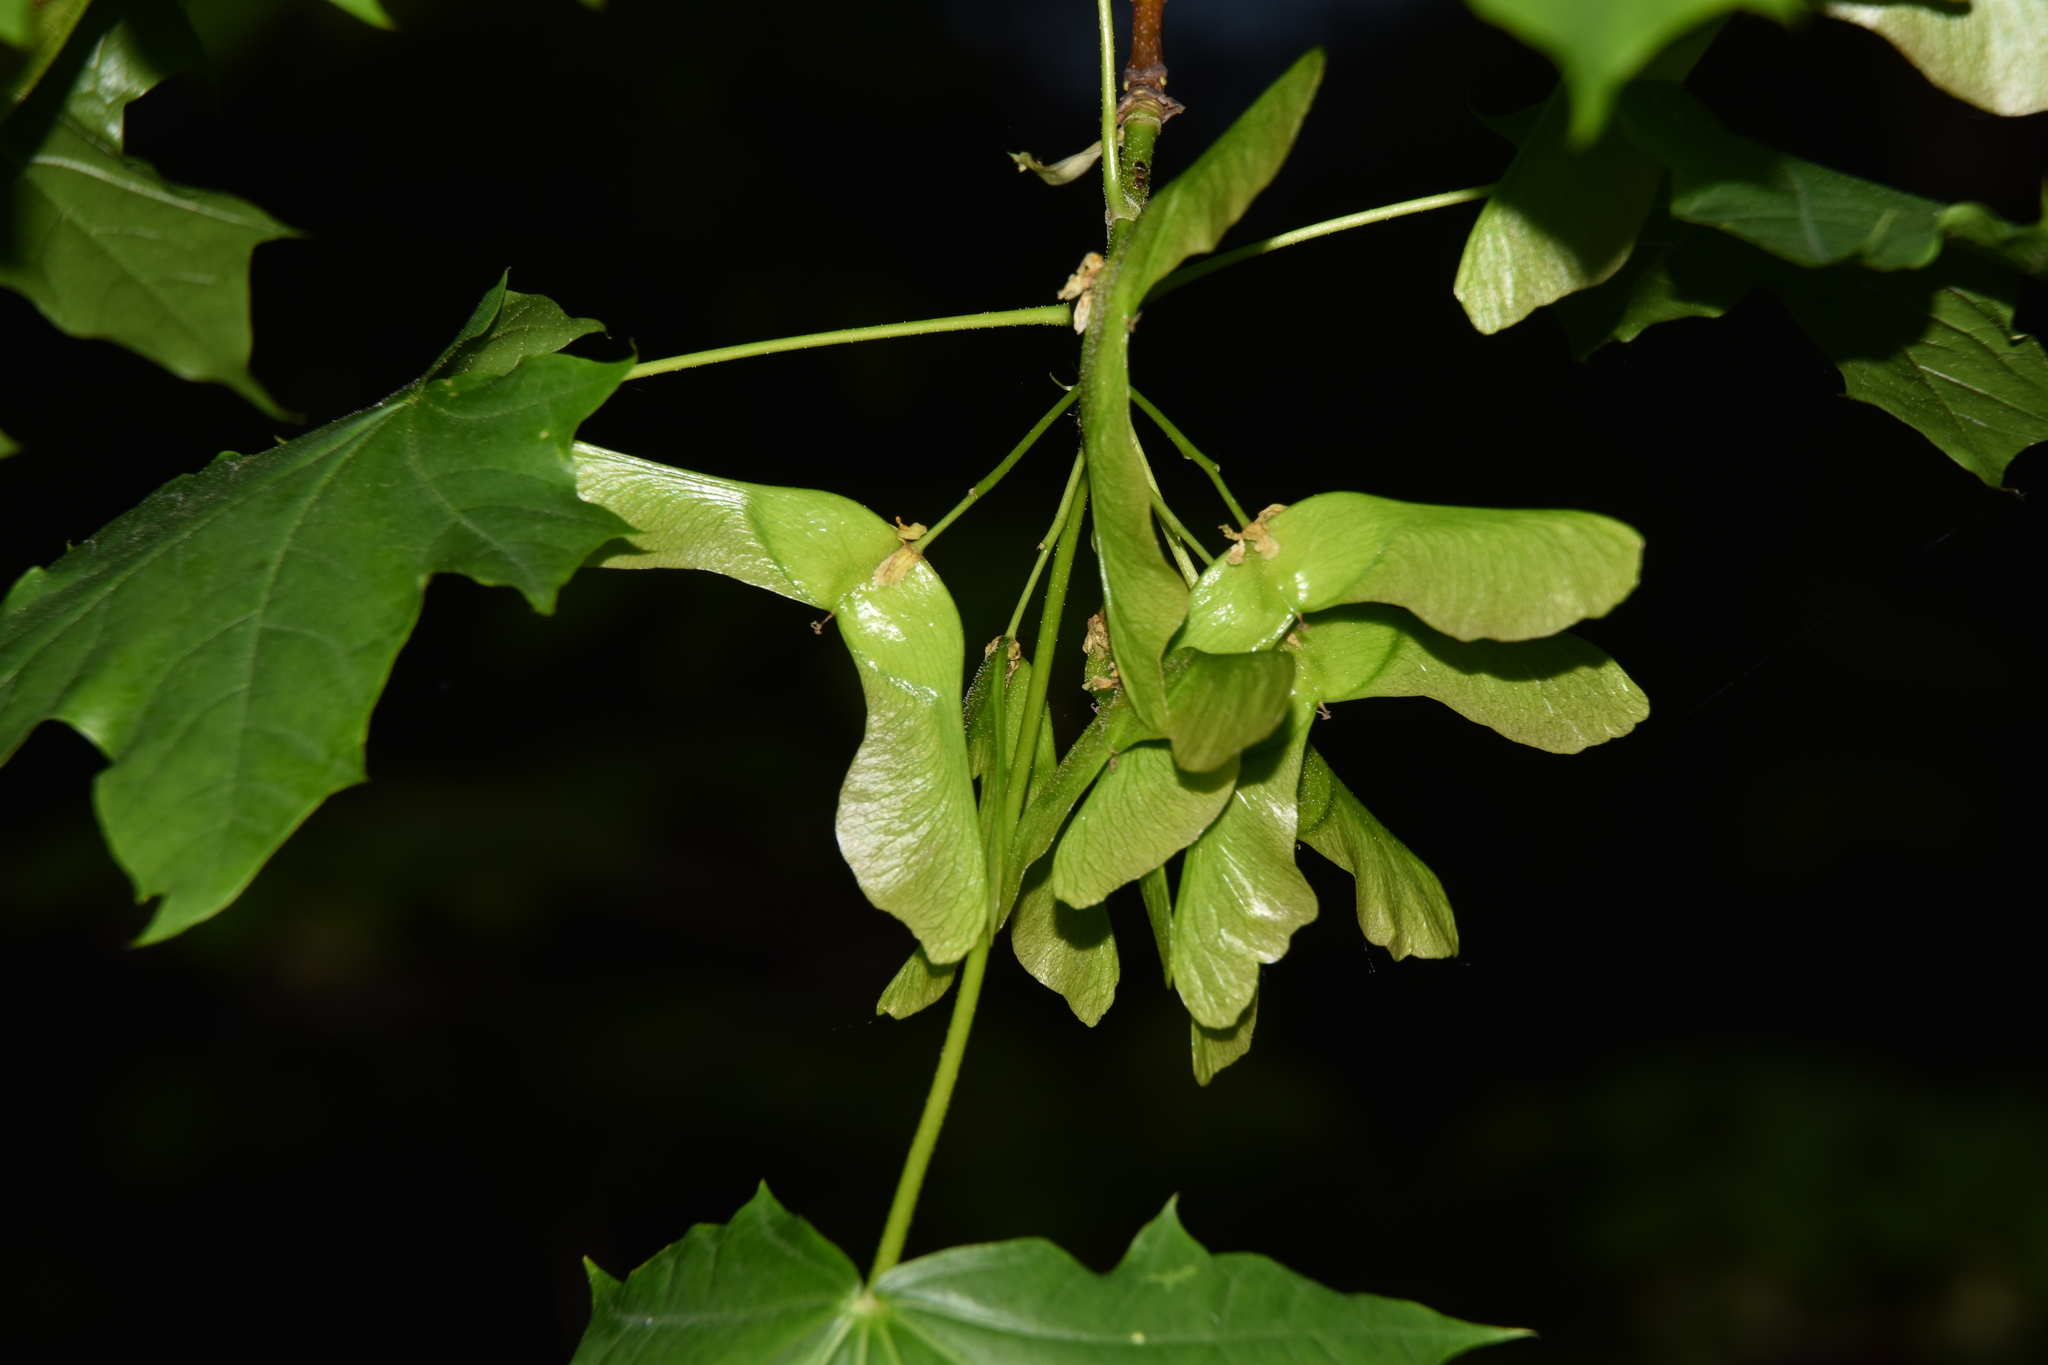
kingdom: Plantae
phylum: Tracheophyta
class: Magnoliopsida
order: Sapindales
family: Sapindaceae
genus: Acer
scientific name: Acer platanoides
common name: Norway maple
